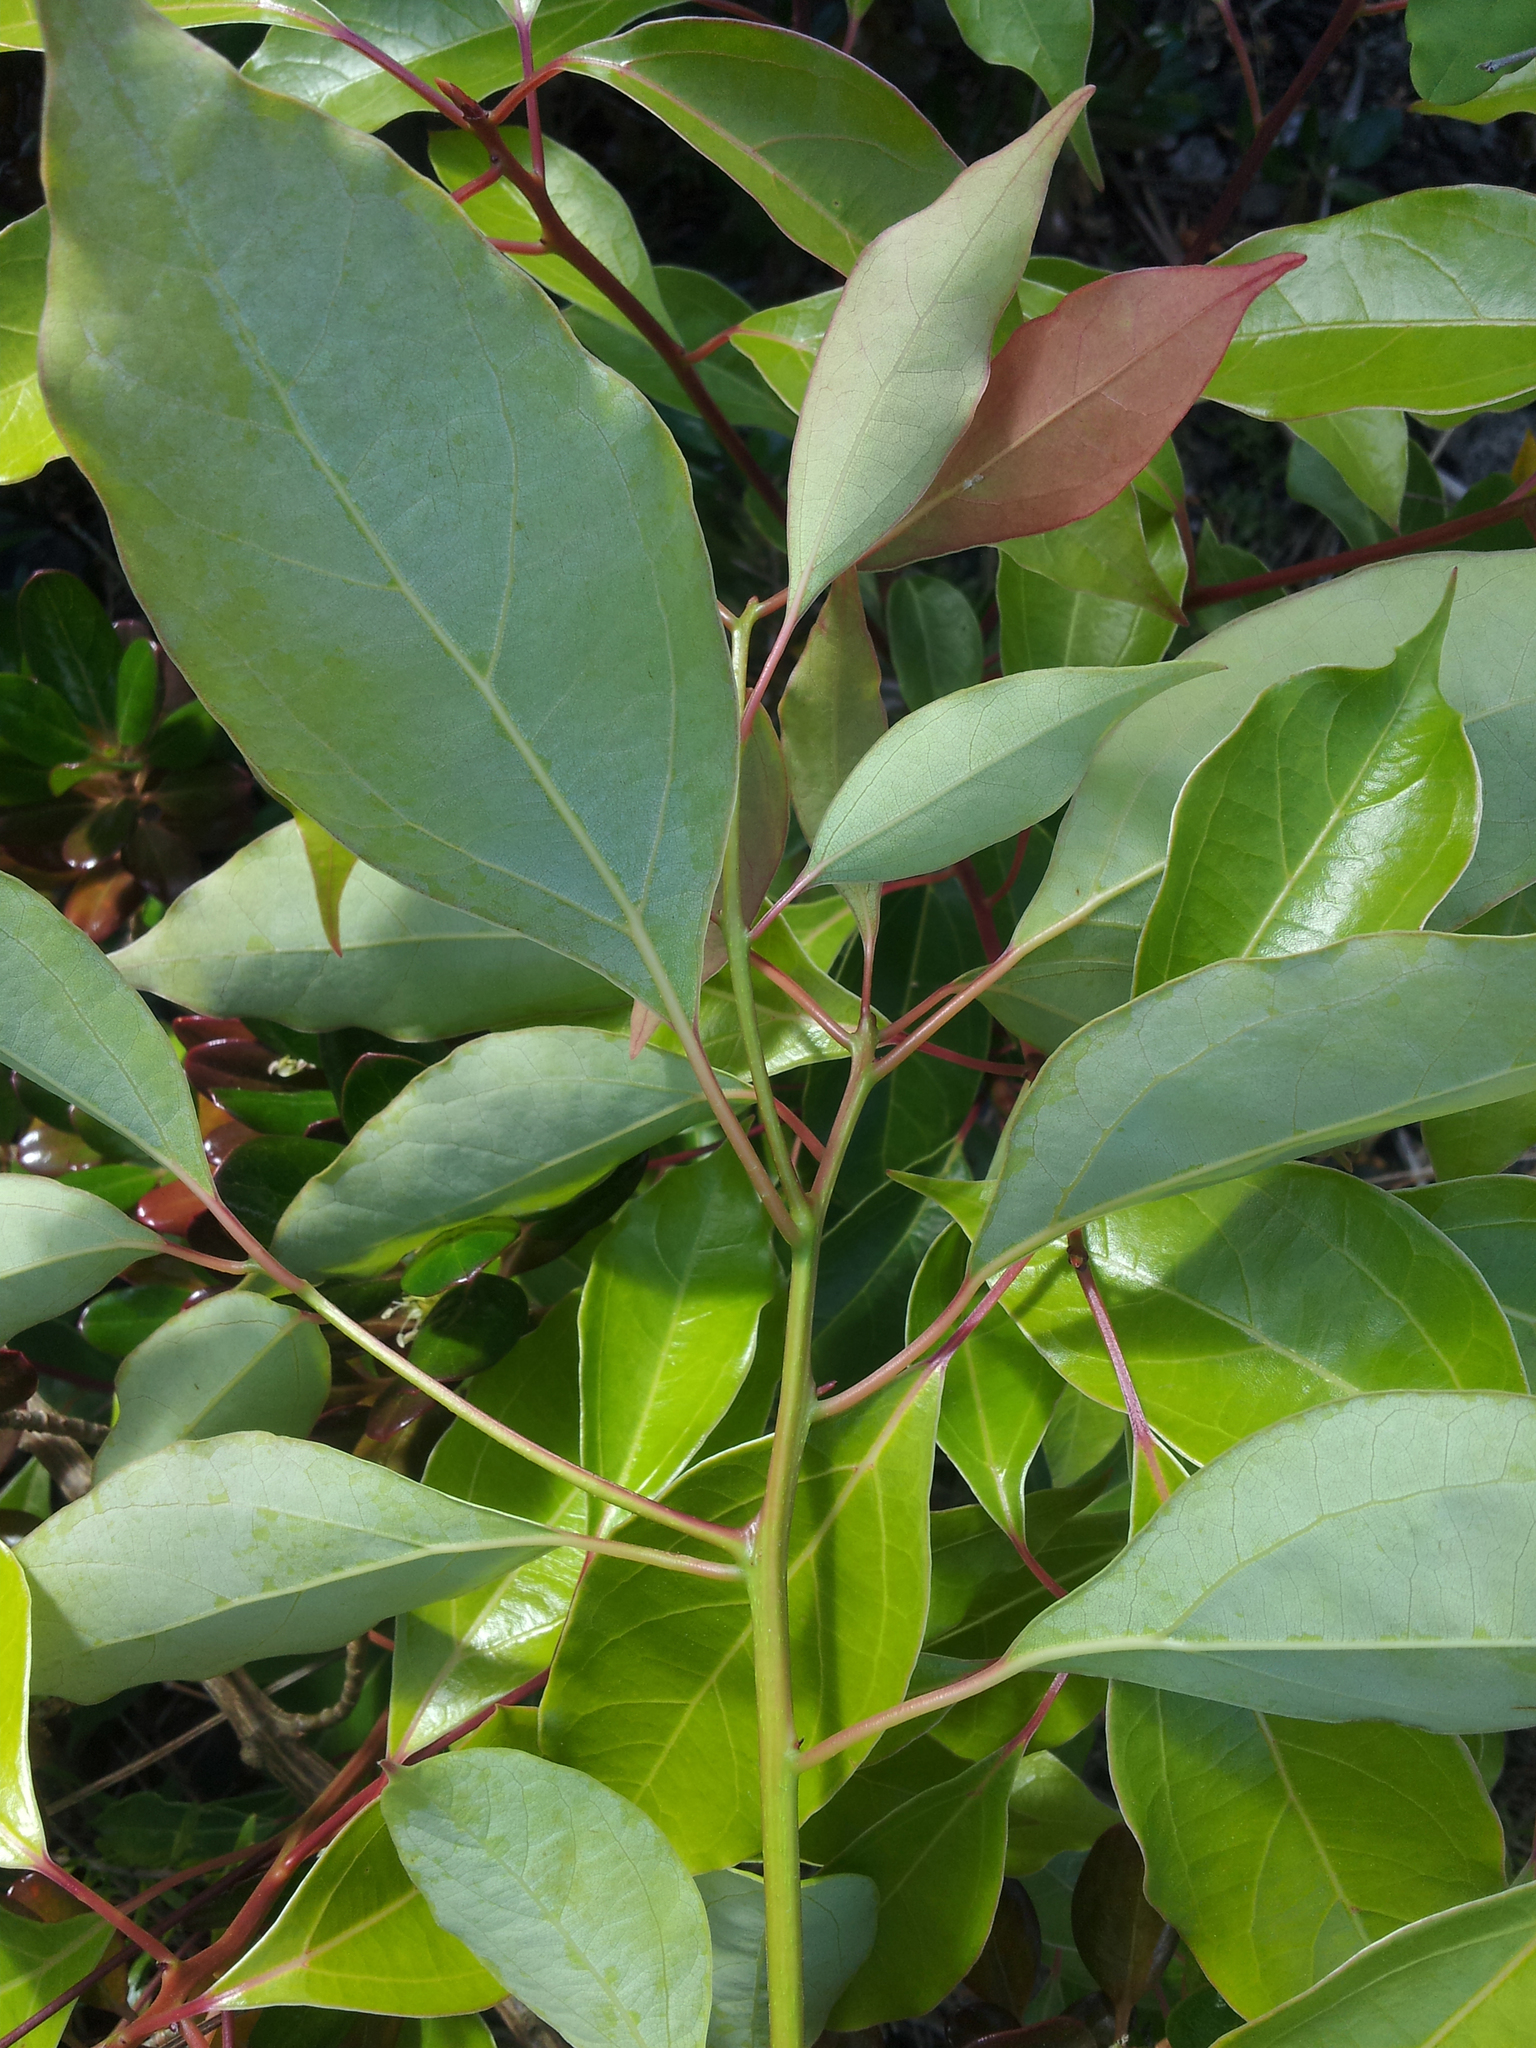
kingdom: Plantae
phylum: Tracheophyta
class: Magnoliopsida
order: Laurales
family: Lauraceae
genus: Cinnamomum
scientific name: Cinnamomum camphora
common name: Camphortree
